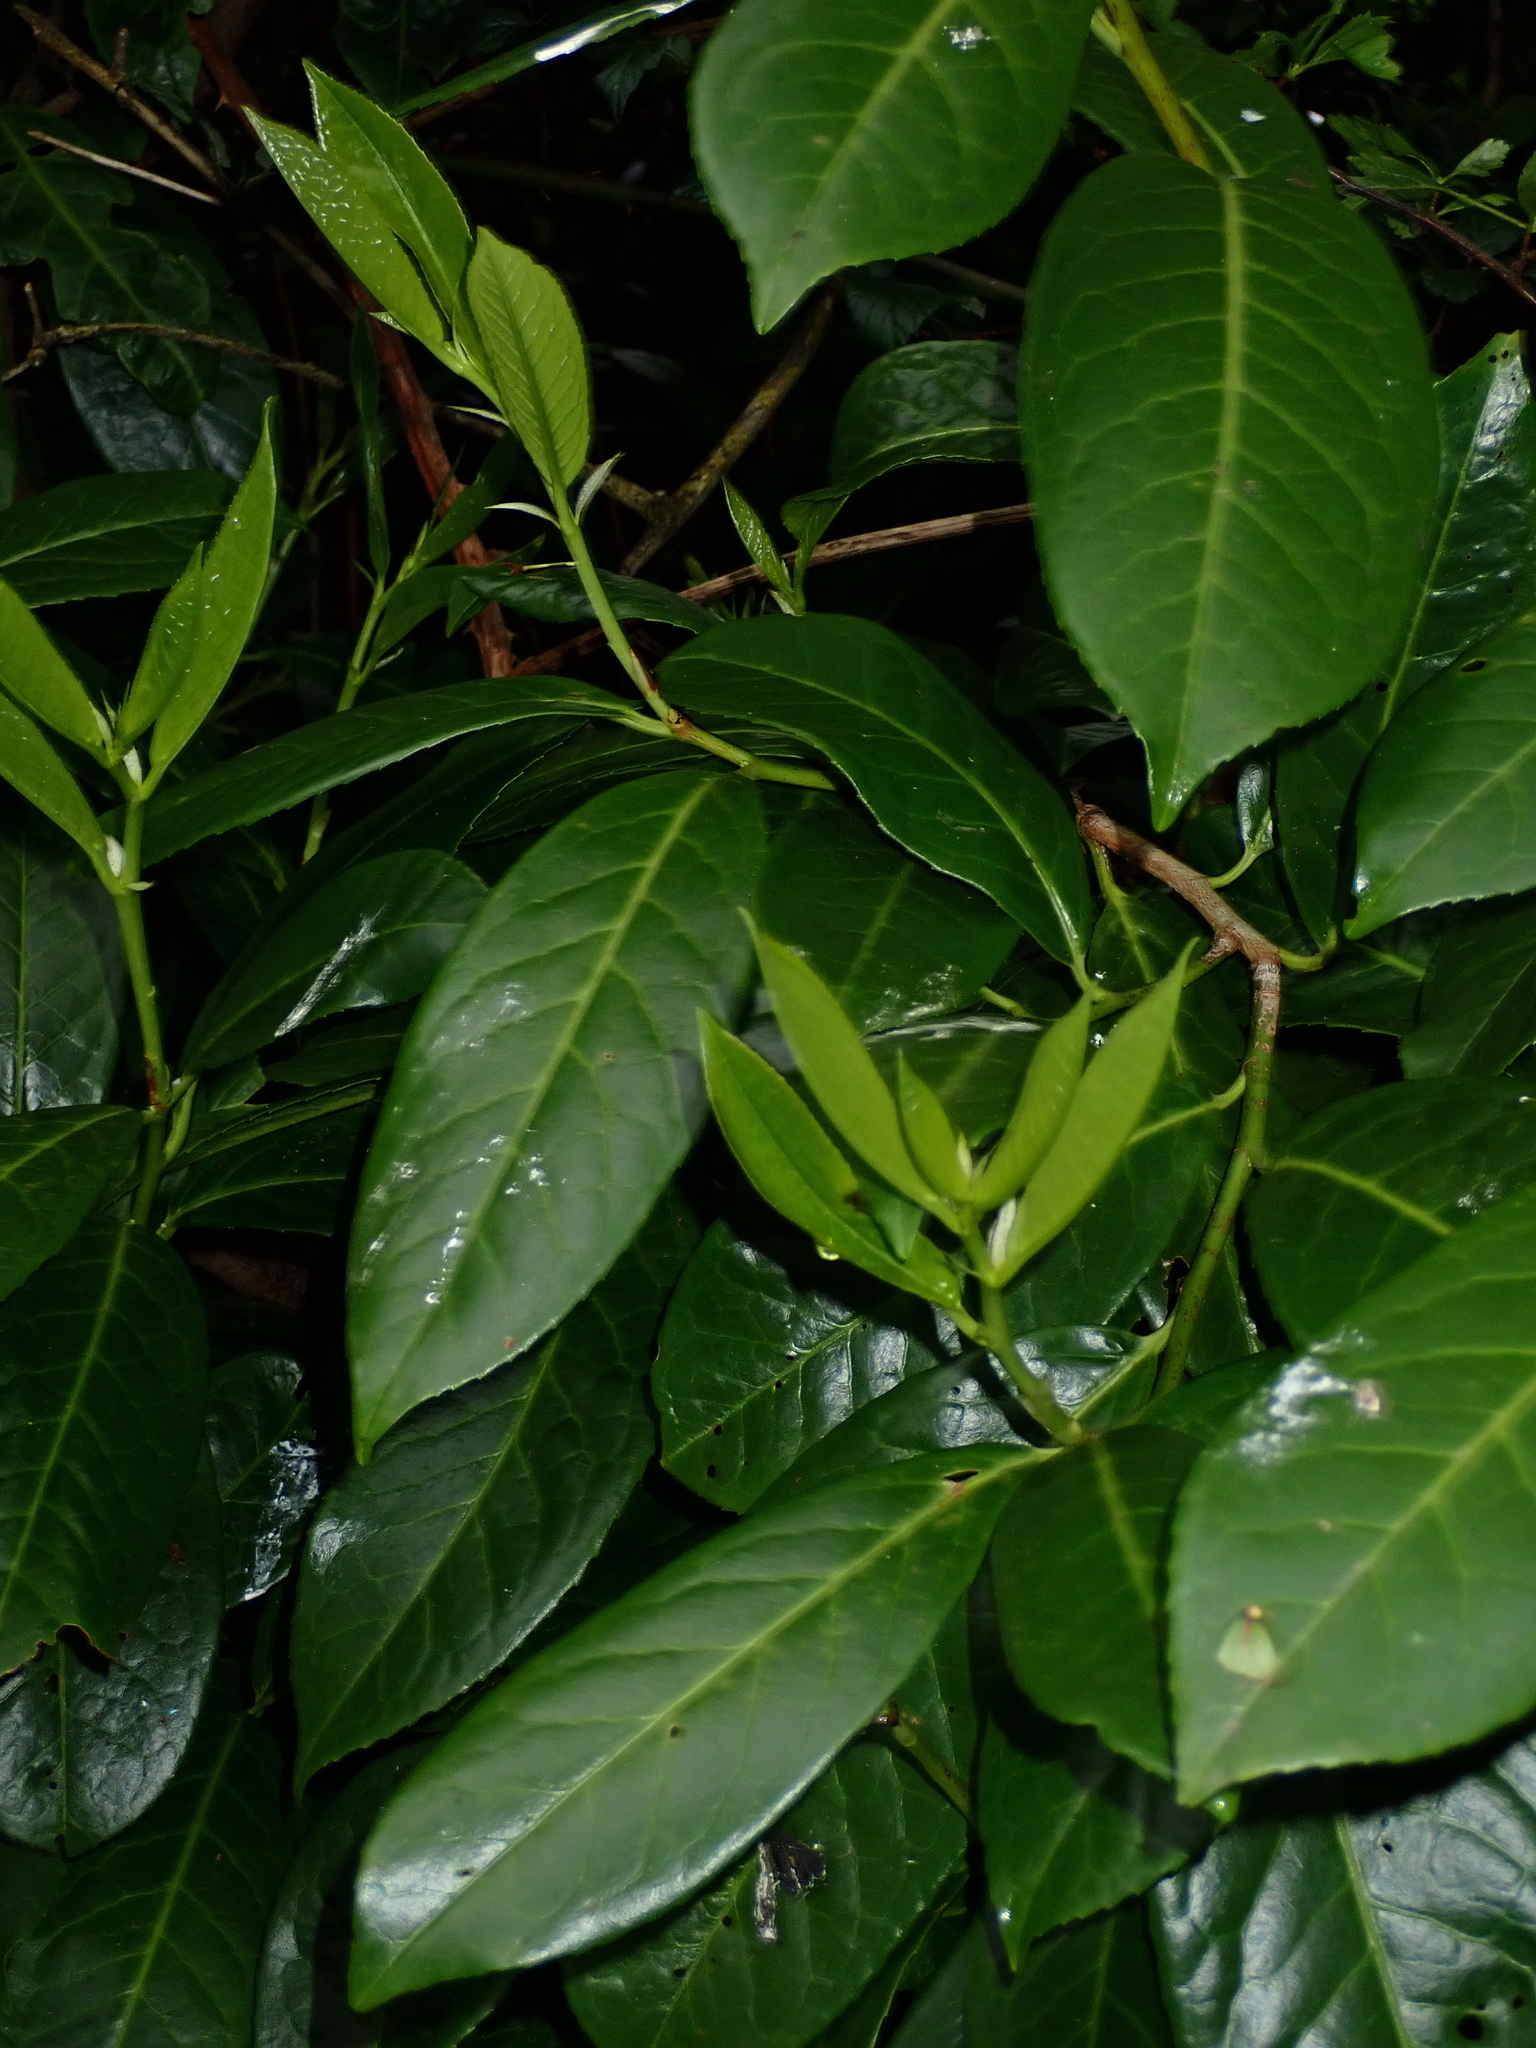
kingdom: Plantae
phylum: Tracheophyta
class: Magnoliopsida
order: Rosales
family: Rosaceae
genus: Prunus
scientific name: Prunus laurocerasus
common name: Cherry laurel
